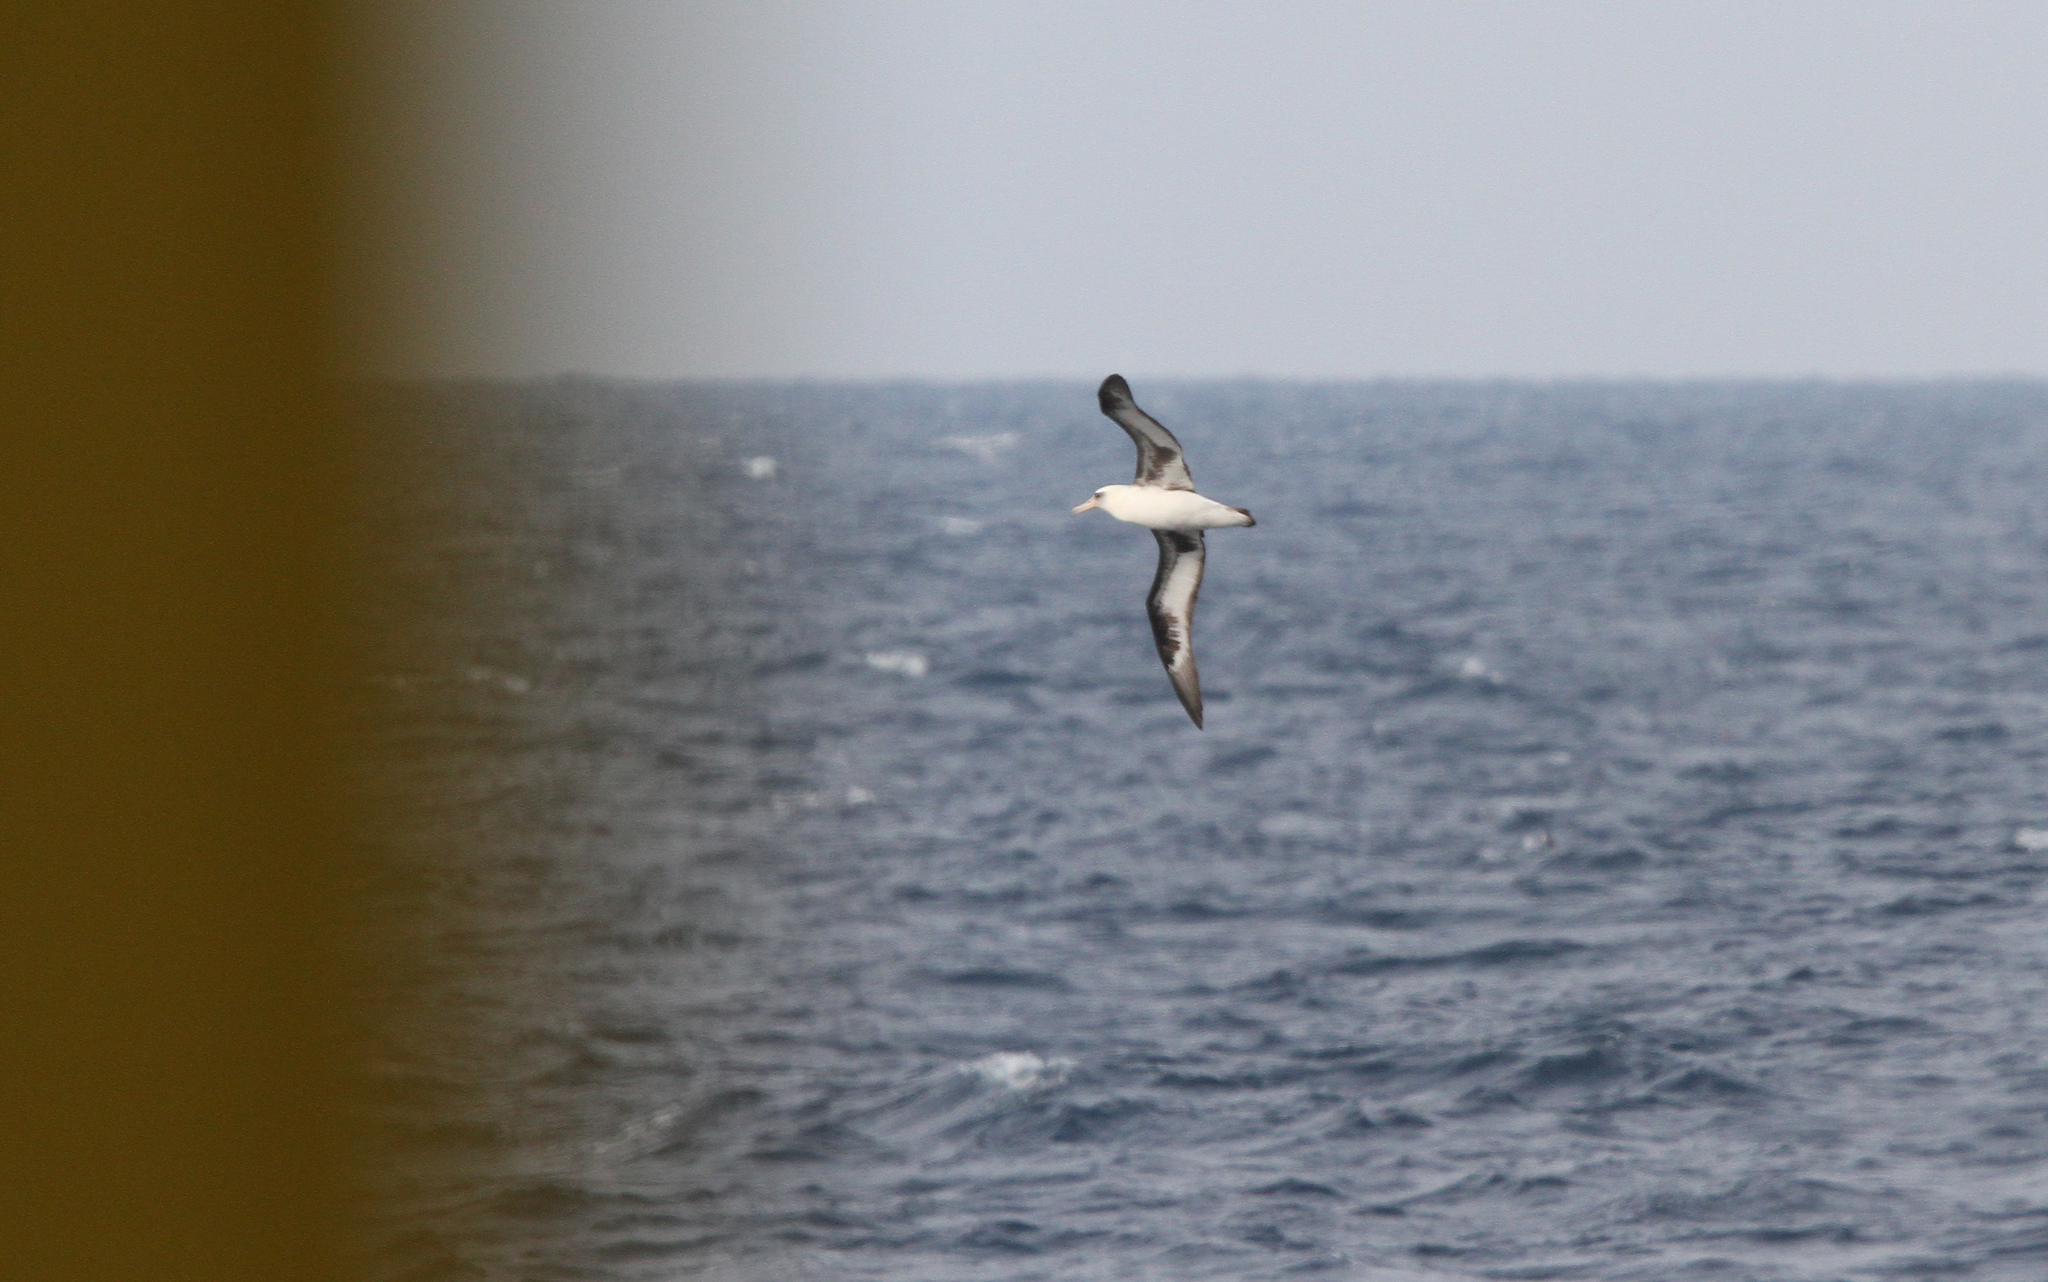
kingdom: Animalia
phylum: Chordata
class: Aves
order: Procellariiformes
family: Diomedeidae
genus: Phoebastria
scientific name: Phoebastria immutabilis
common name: Laysan albatross
